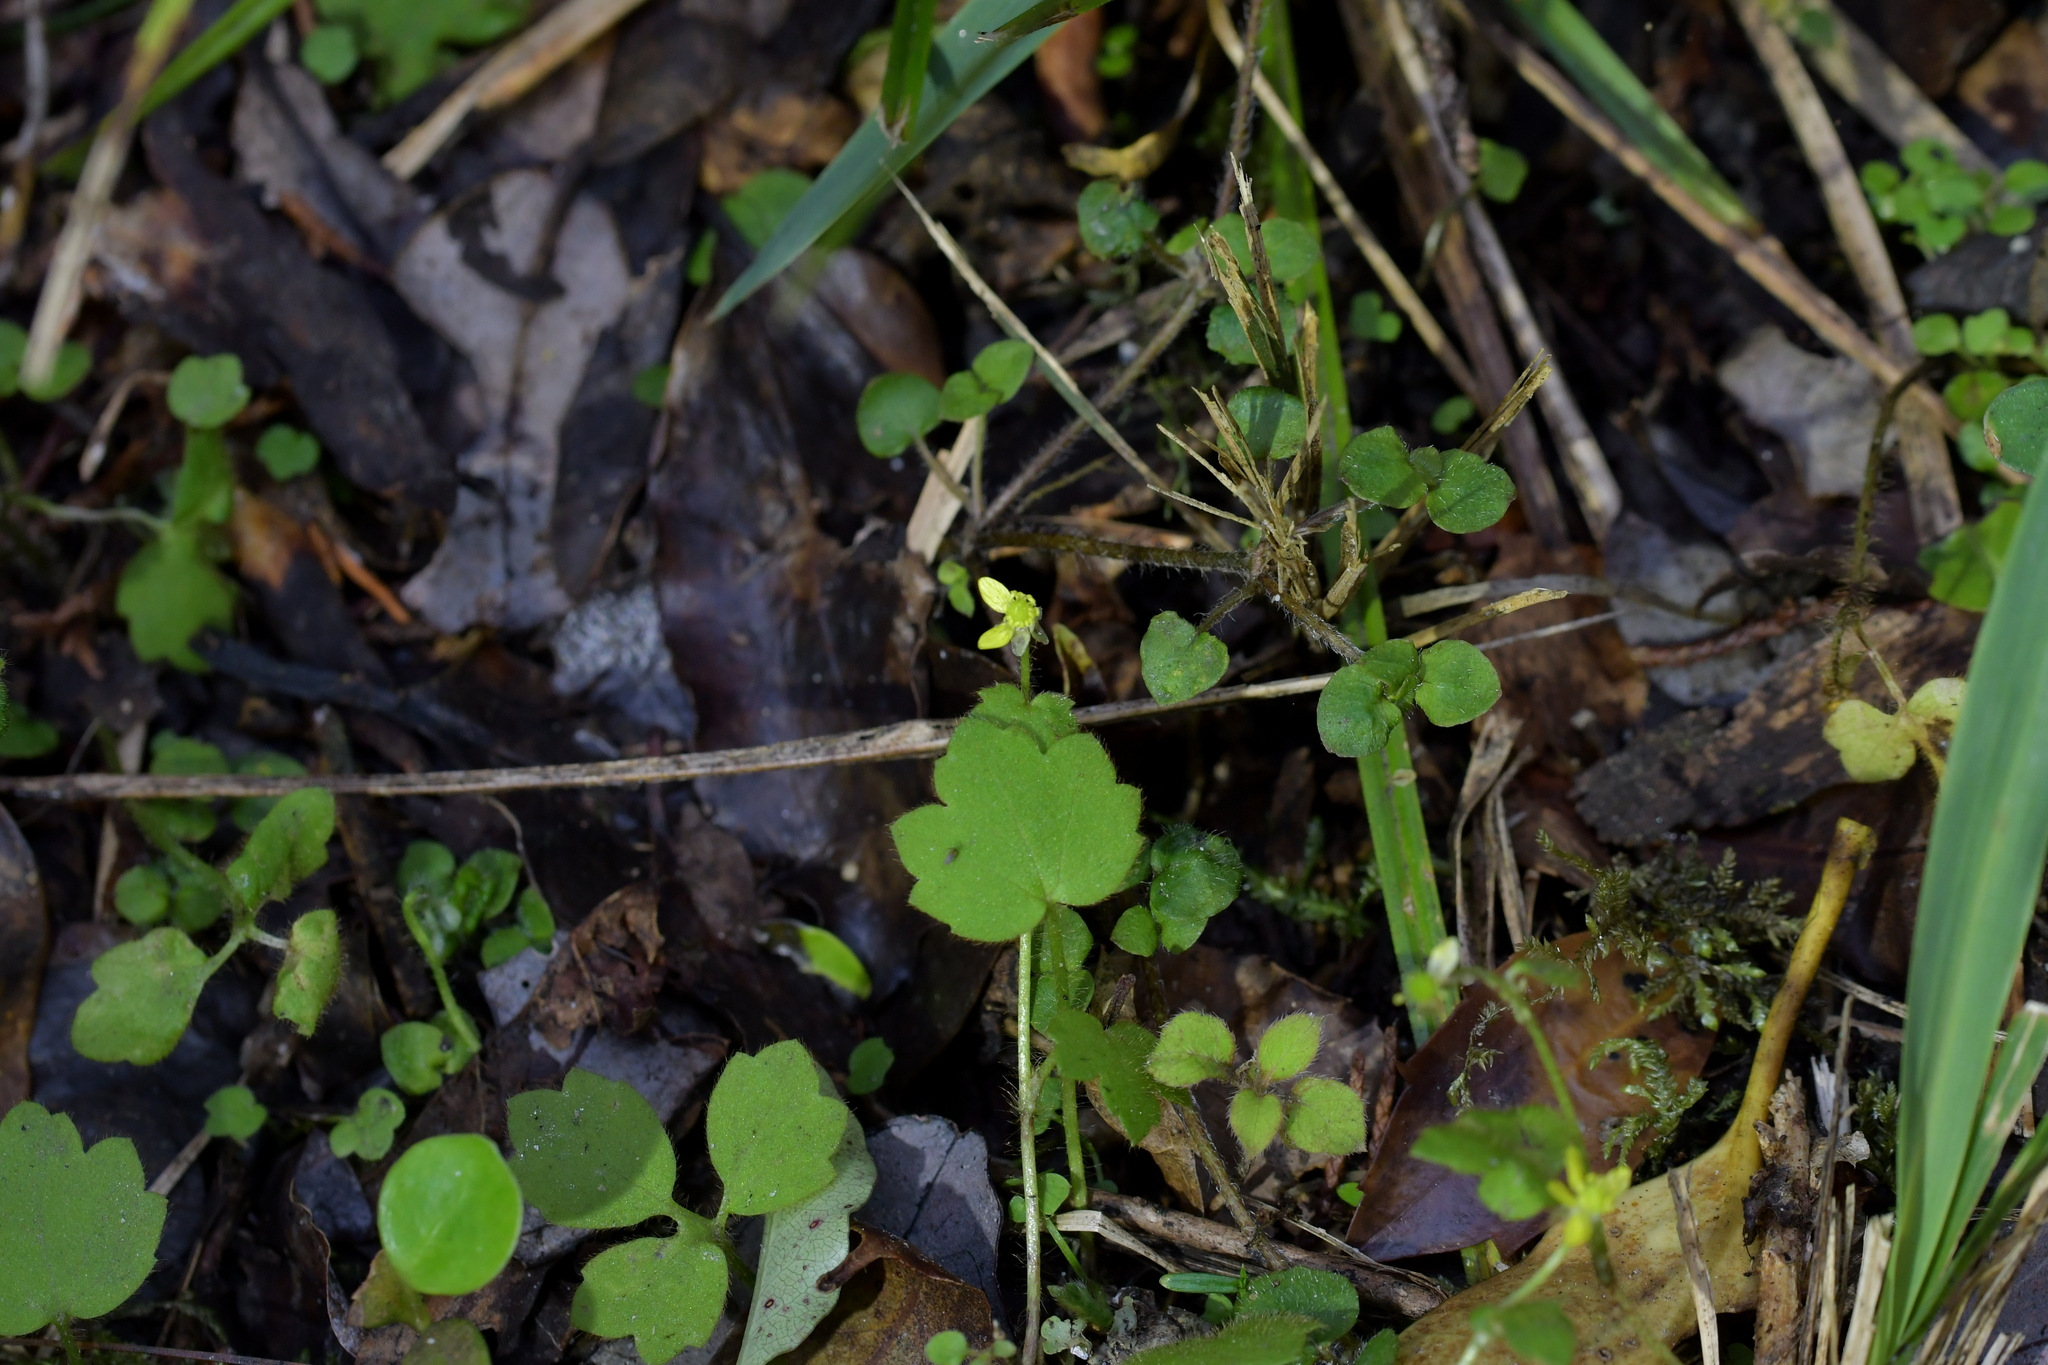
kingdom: Plantae
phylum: Tracheophyta
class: Magnoliopsida
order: Ranunculales
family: Ranunculaceae
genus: Ranunculus
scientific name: Ranunculus reflexus
